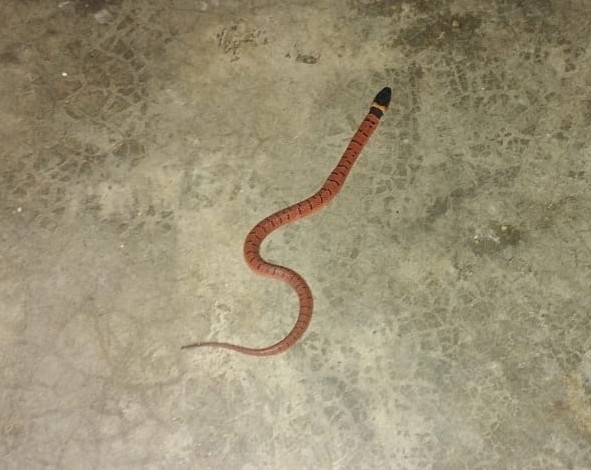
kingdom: Animalia
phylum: Chordata
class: Squamata
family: Colubridae
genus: Ninia
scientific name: Ninia sebae
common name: Redback coffee snake
